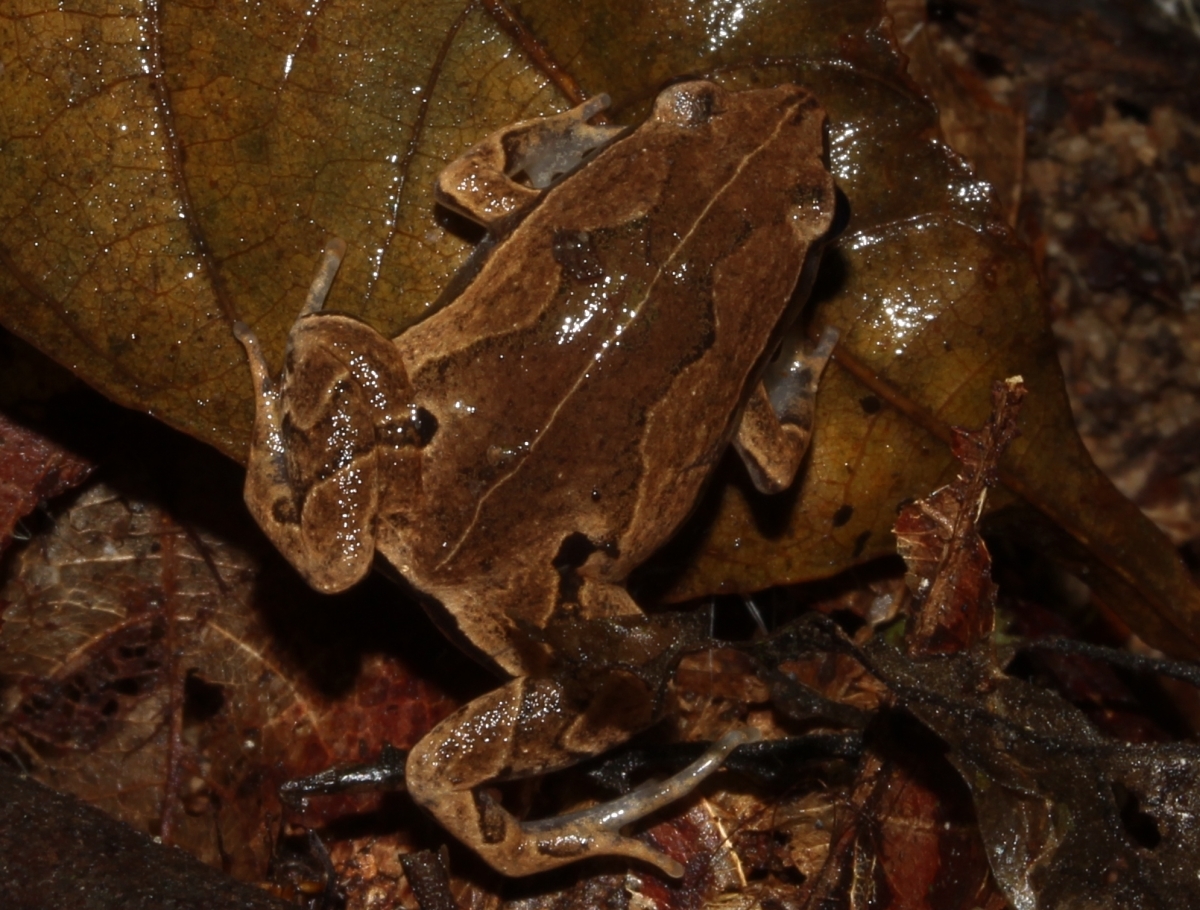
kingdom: Animalia
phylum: Chordata
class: Amphibia
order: Anura
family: Microhylidae
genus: Hamptophryne
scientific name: Hamptophryne boliviana
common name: Bolivian bleating frog
